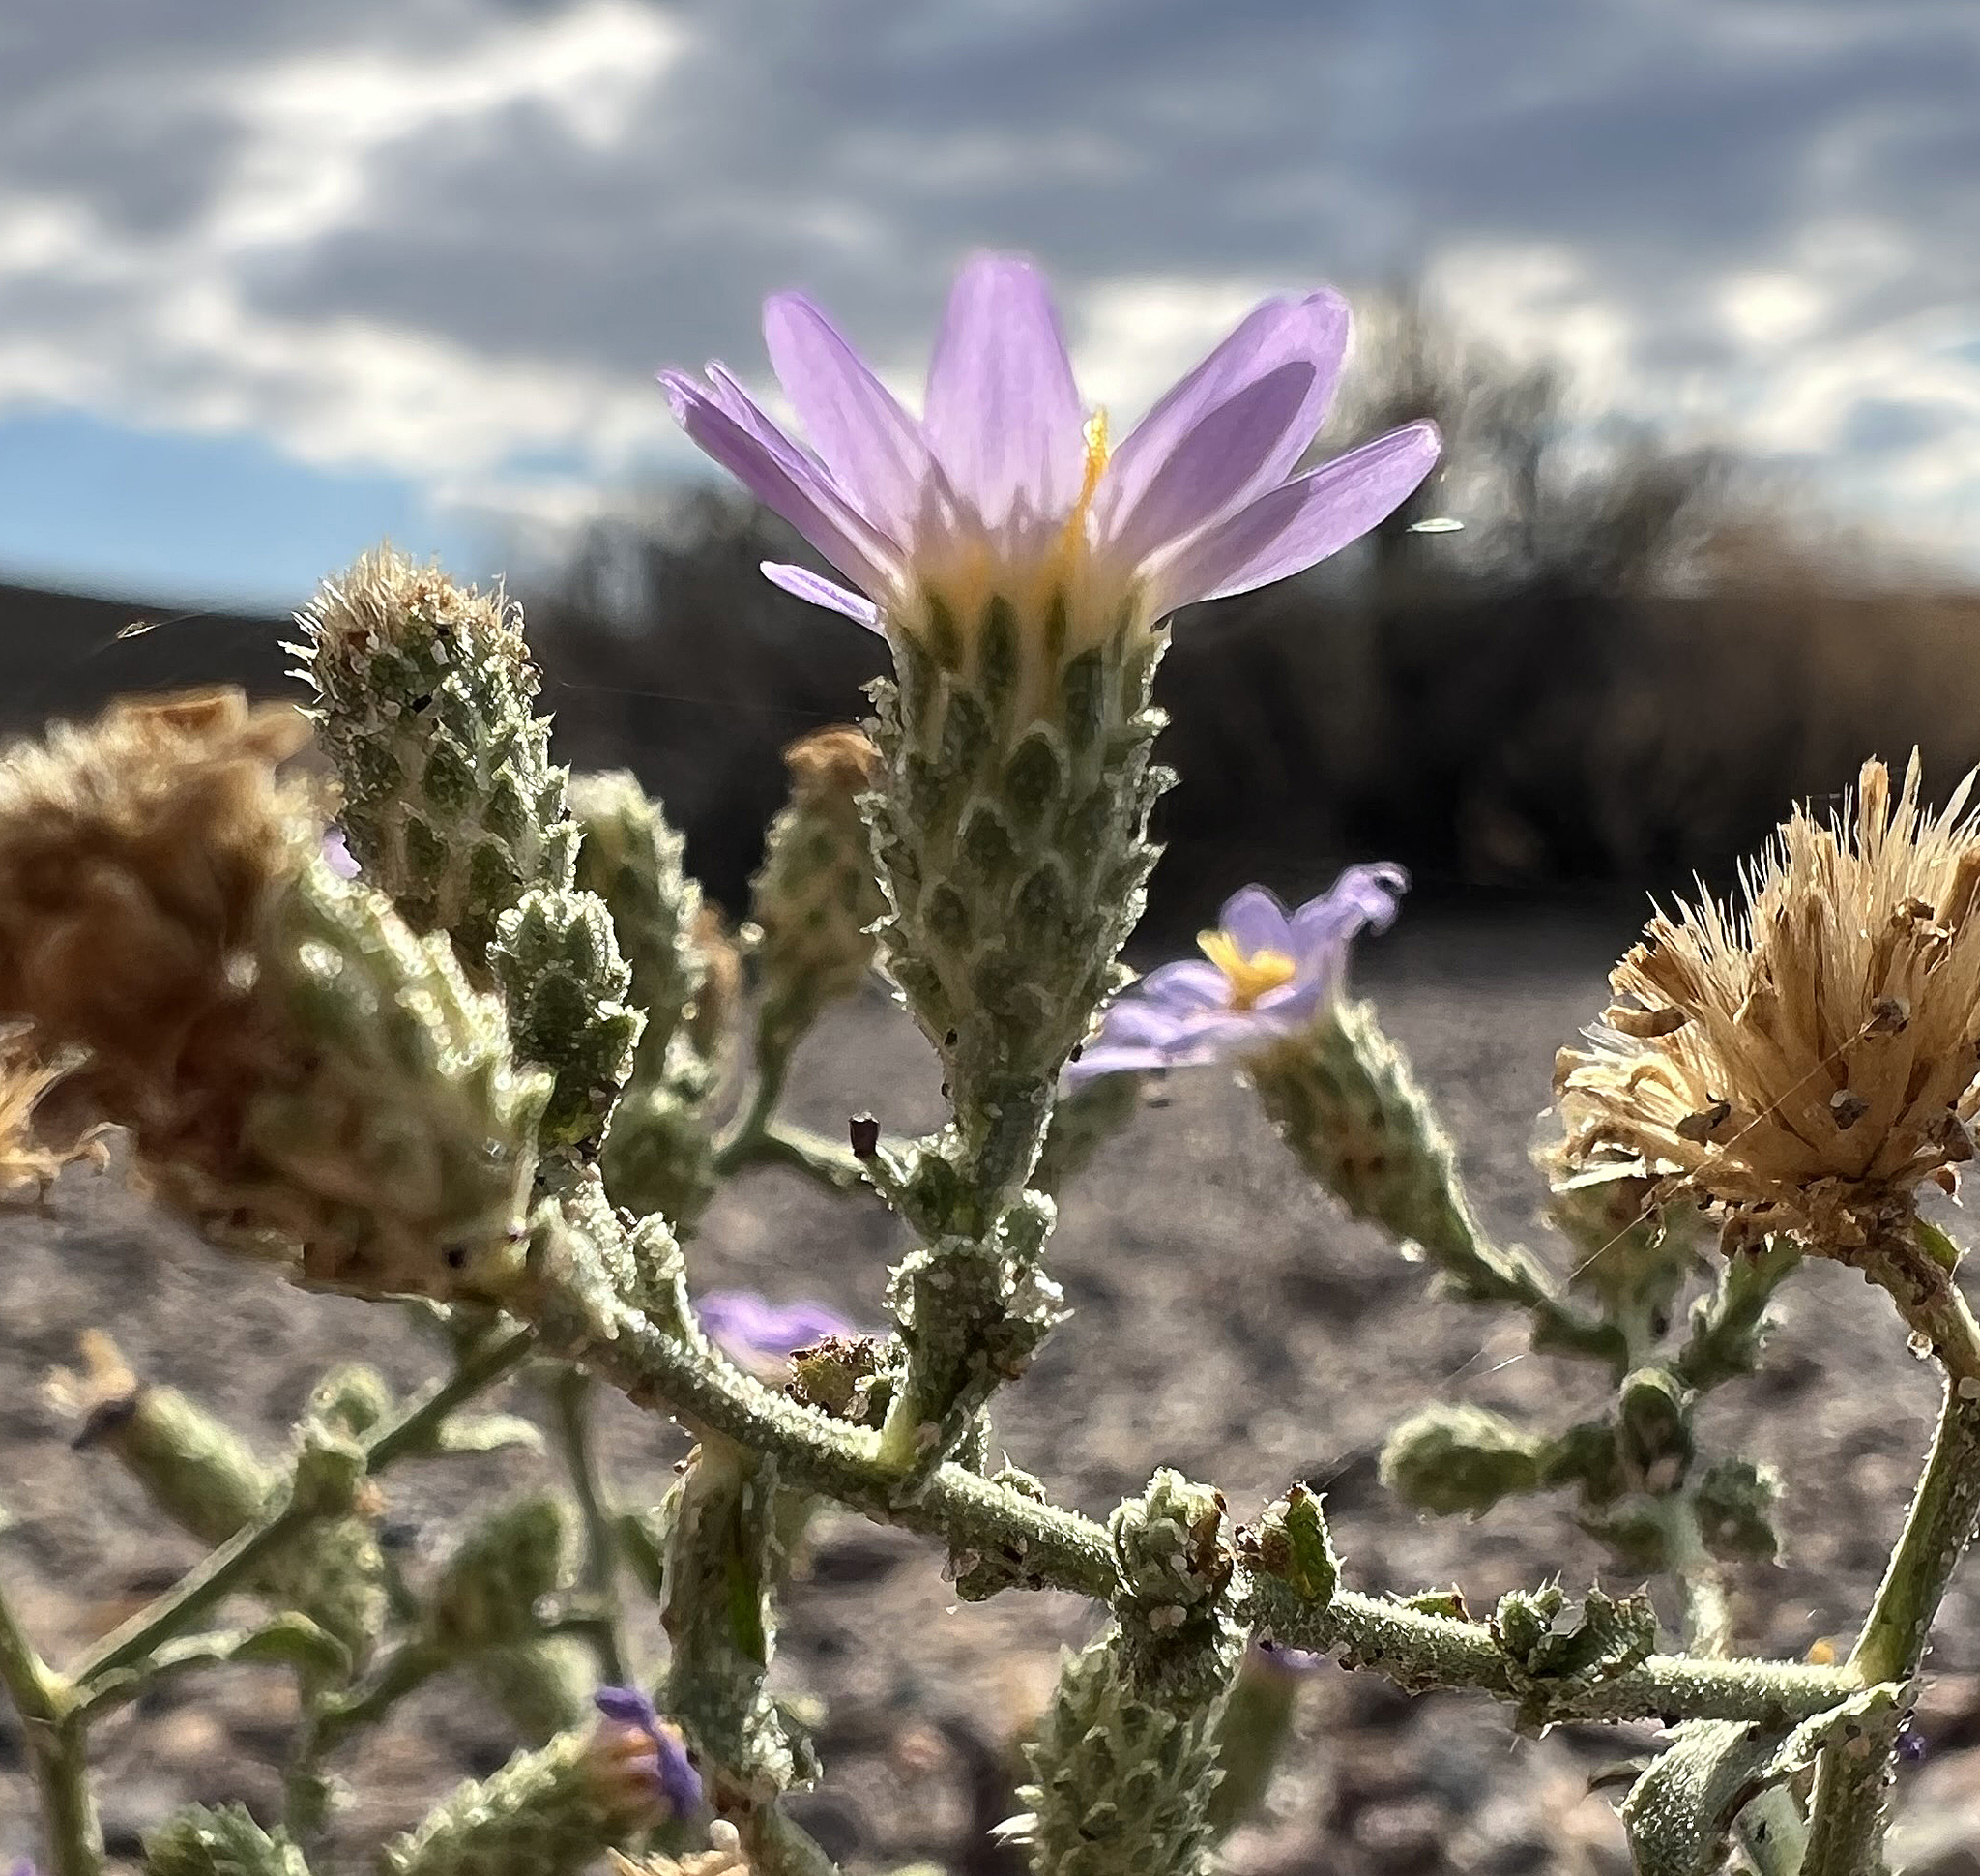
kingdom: Plantae
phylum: Tracheophyta
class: Magnoliopsida
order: Asterales
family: Asteraceae
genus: Dieteria
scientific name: Dieteria canescens
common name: Hoary-aster
